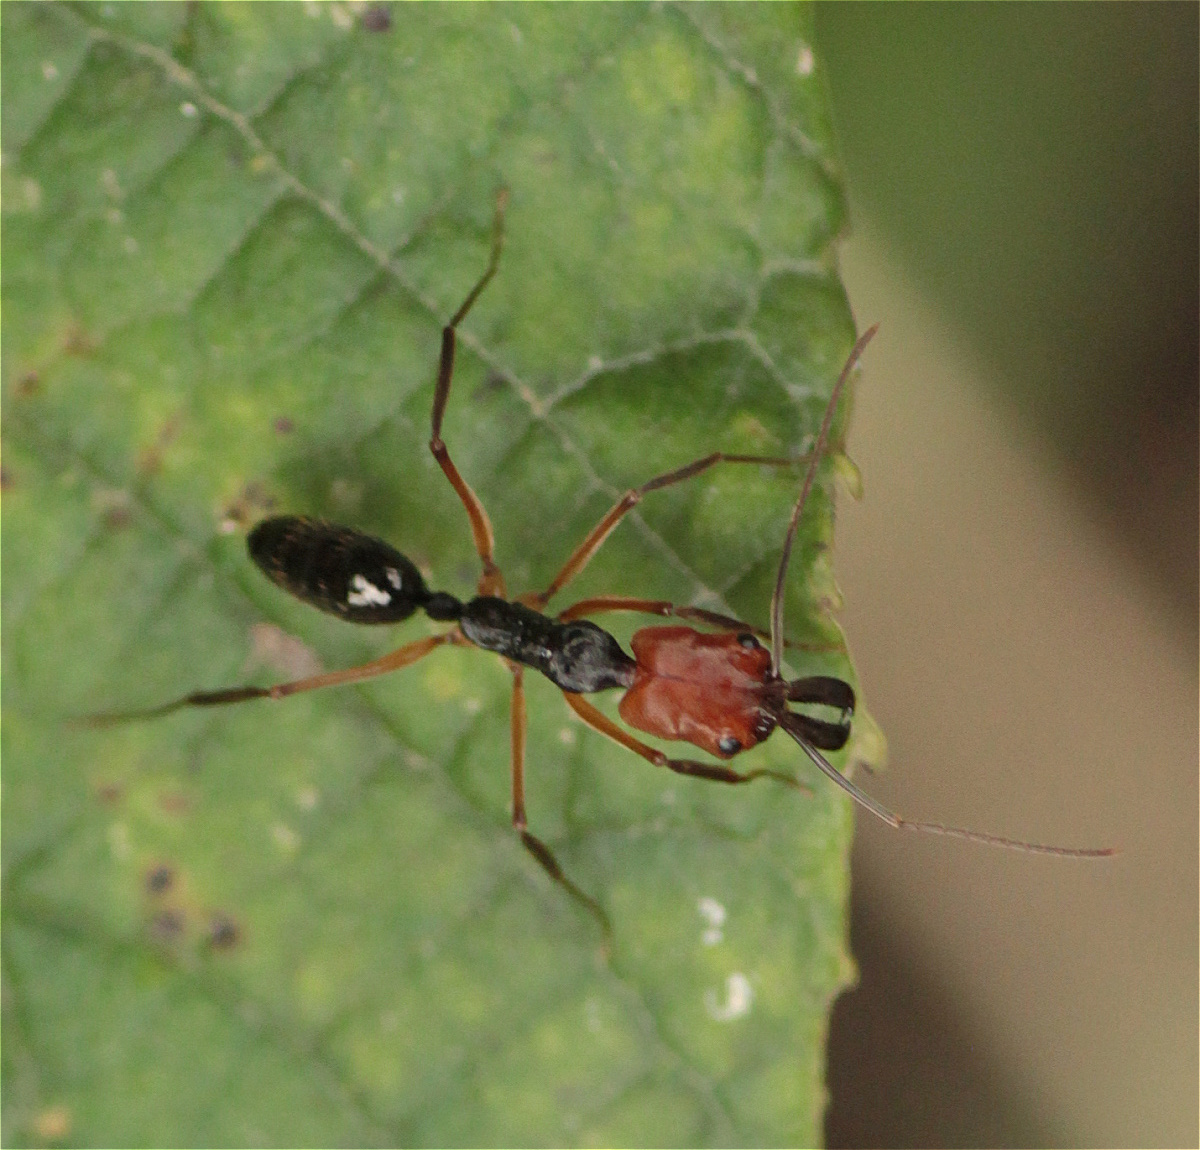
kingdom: Animalia
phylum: Arthropoda
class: Insecta
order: Hymenoptera
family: Formicidae
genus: Odontomachus
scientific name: Odontomachus erythrocephalus
